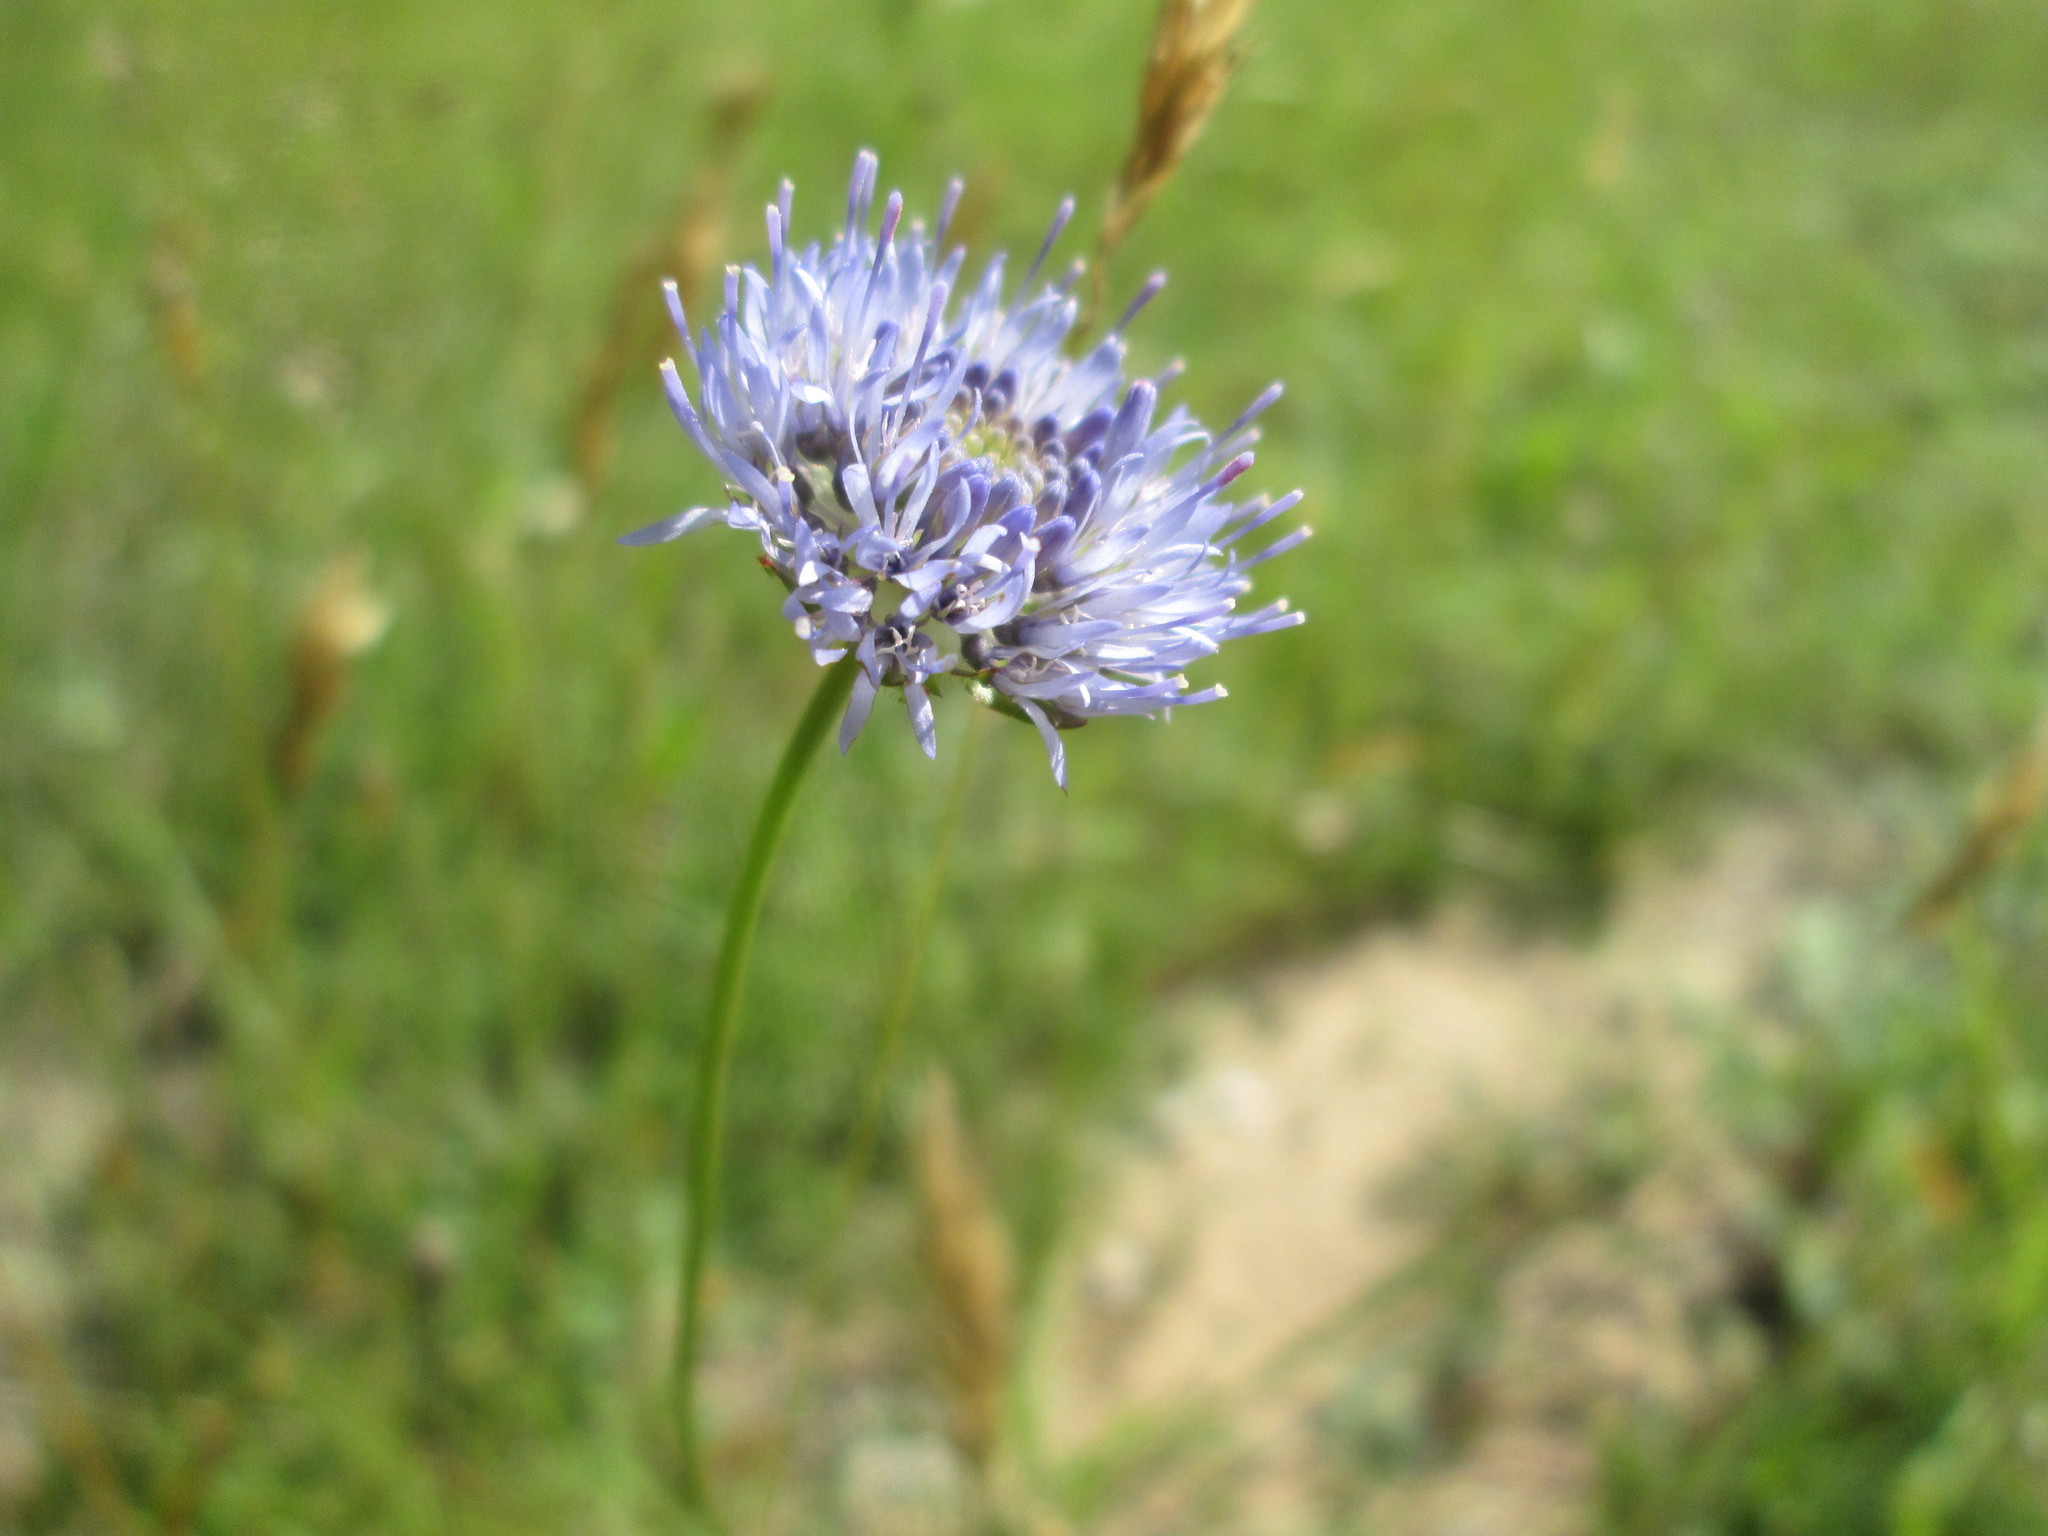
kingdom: Plantae
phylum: Tracheophyta
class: Magnoliopsida
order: Asterales
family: Campanulaceae
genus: Jasione
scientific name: Jasione montana
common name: Sheep's-bit
